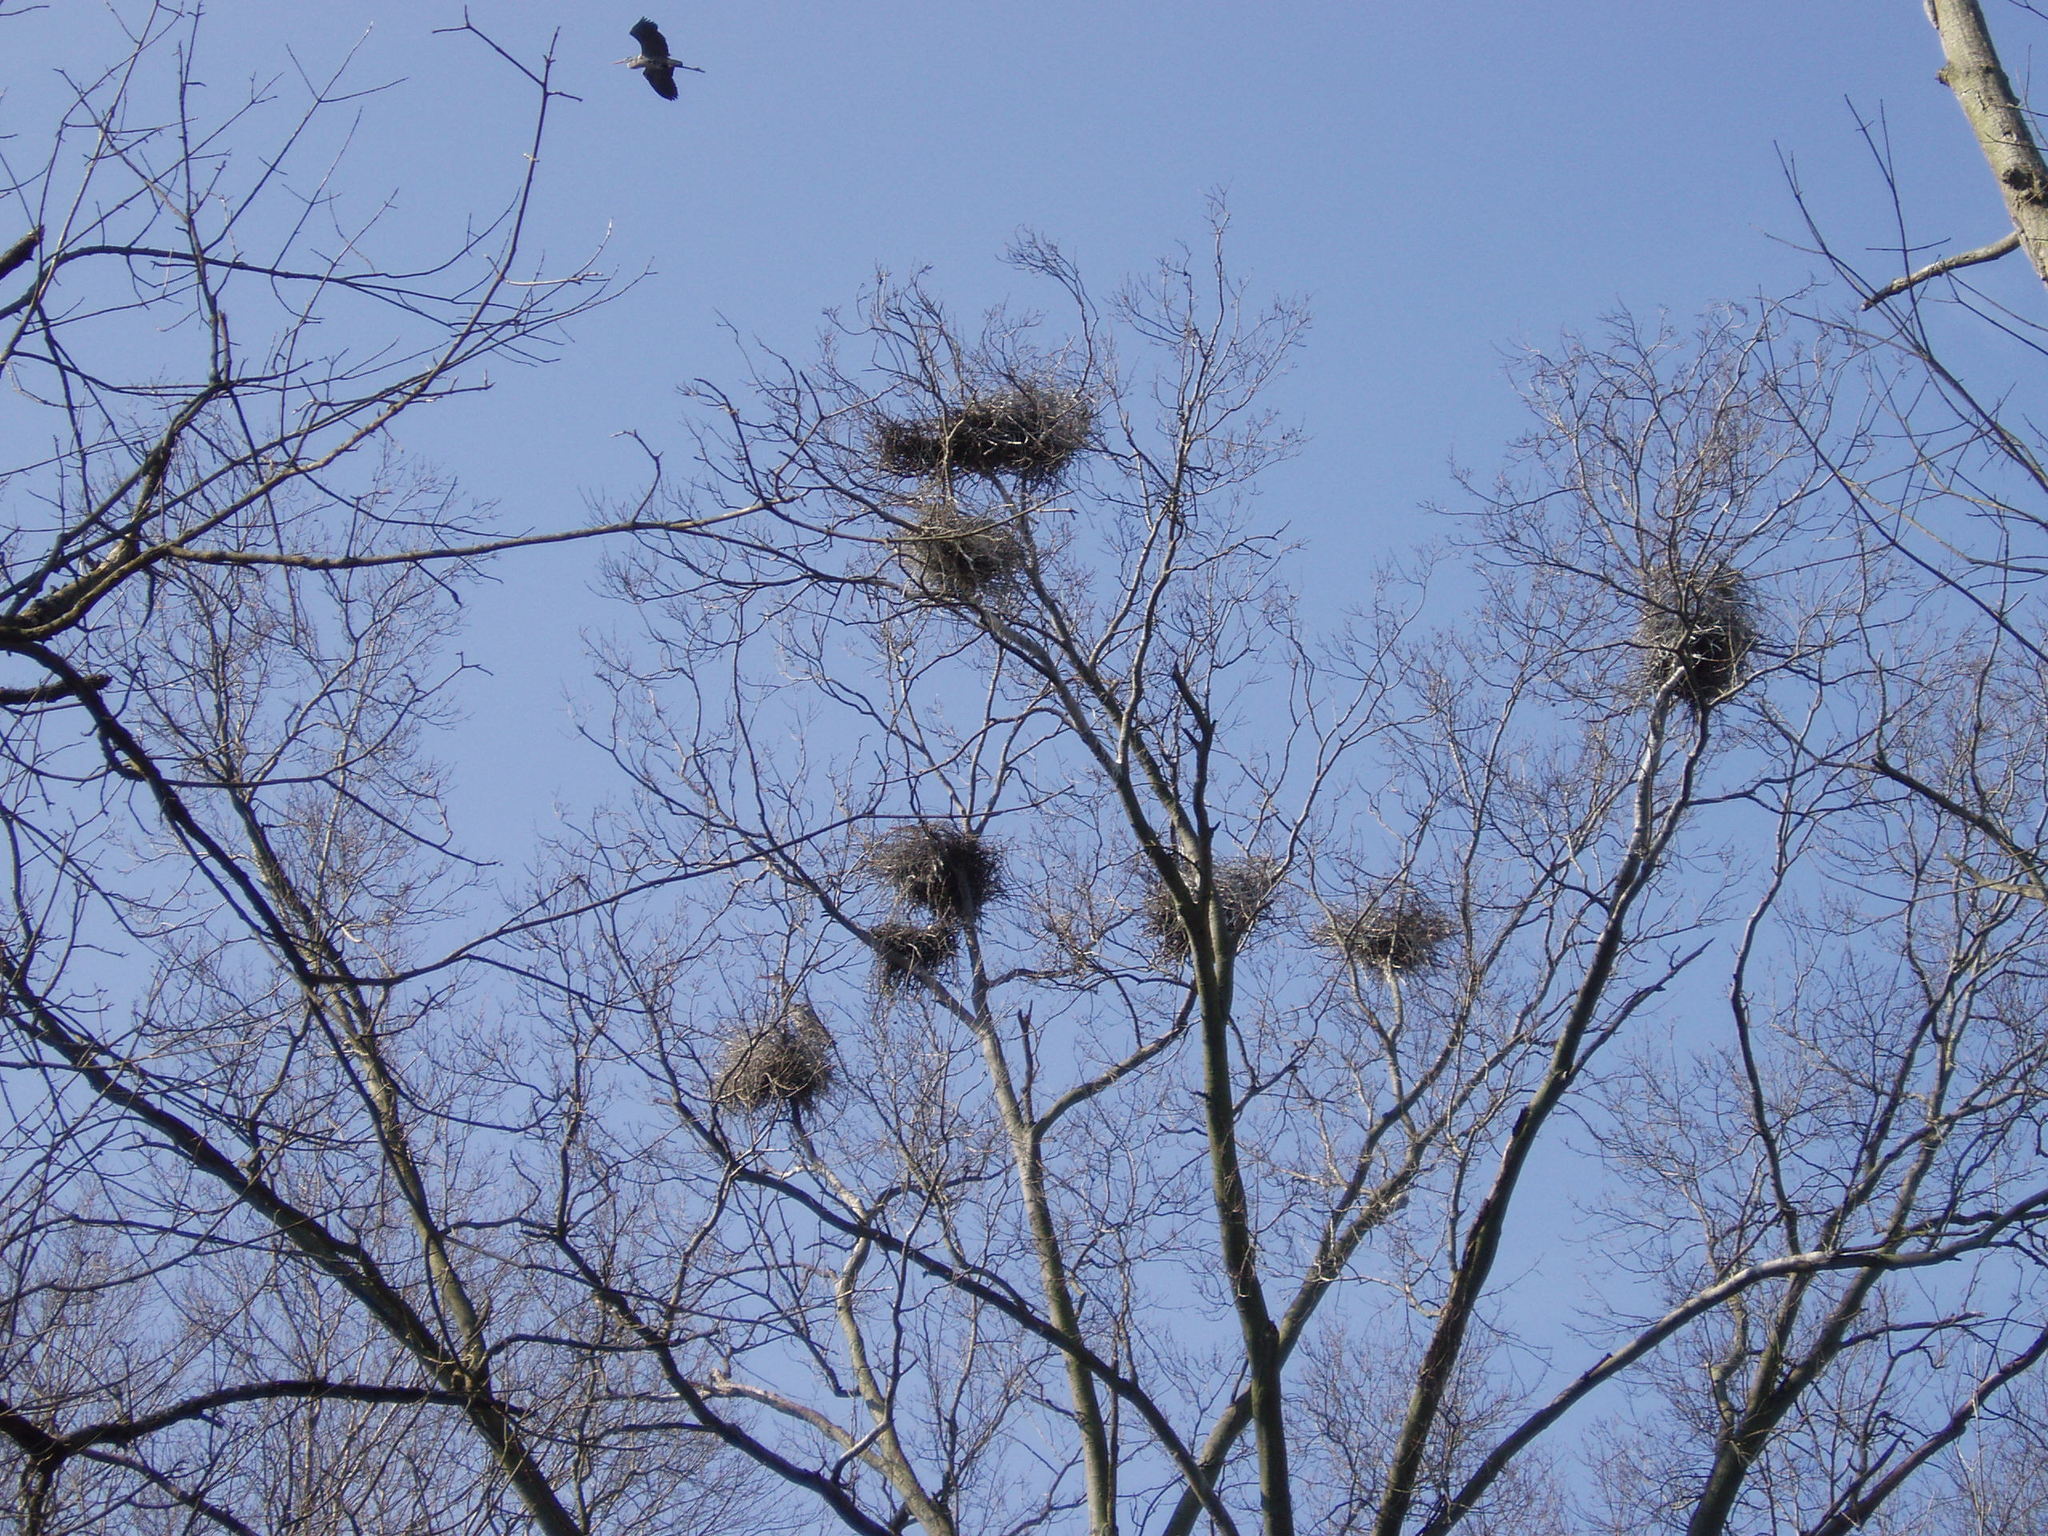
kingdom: Animalia
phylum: Chordata
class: Aves
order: Pelecaniformes
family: Ardeidae
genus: Ardea
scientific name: Ardea herodias
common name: Great blue heron
